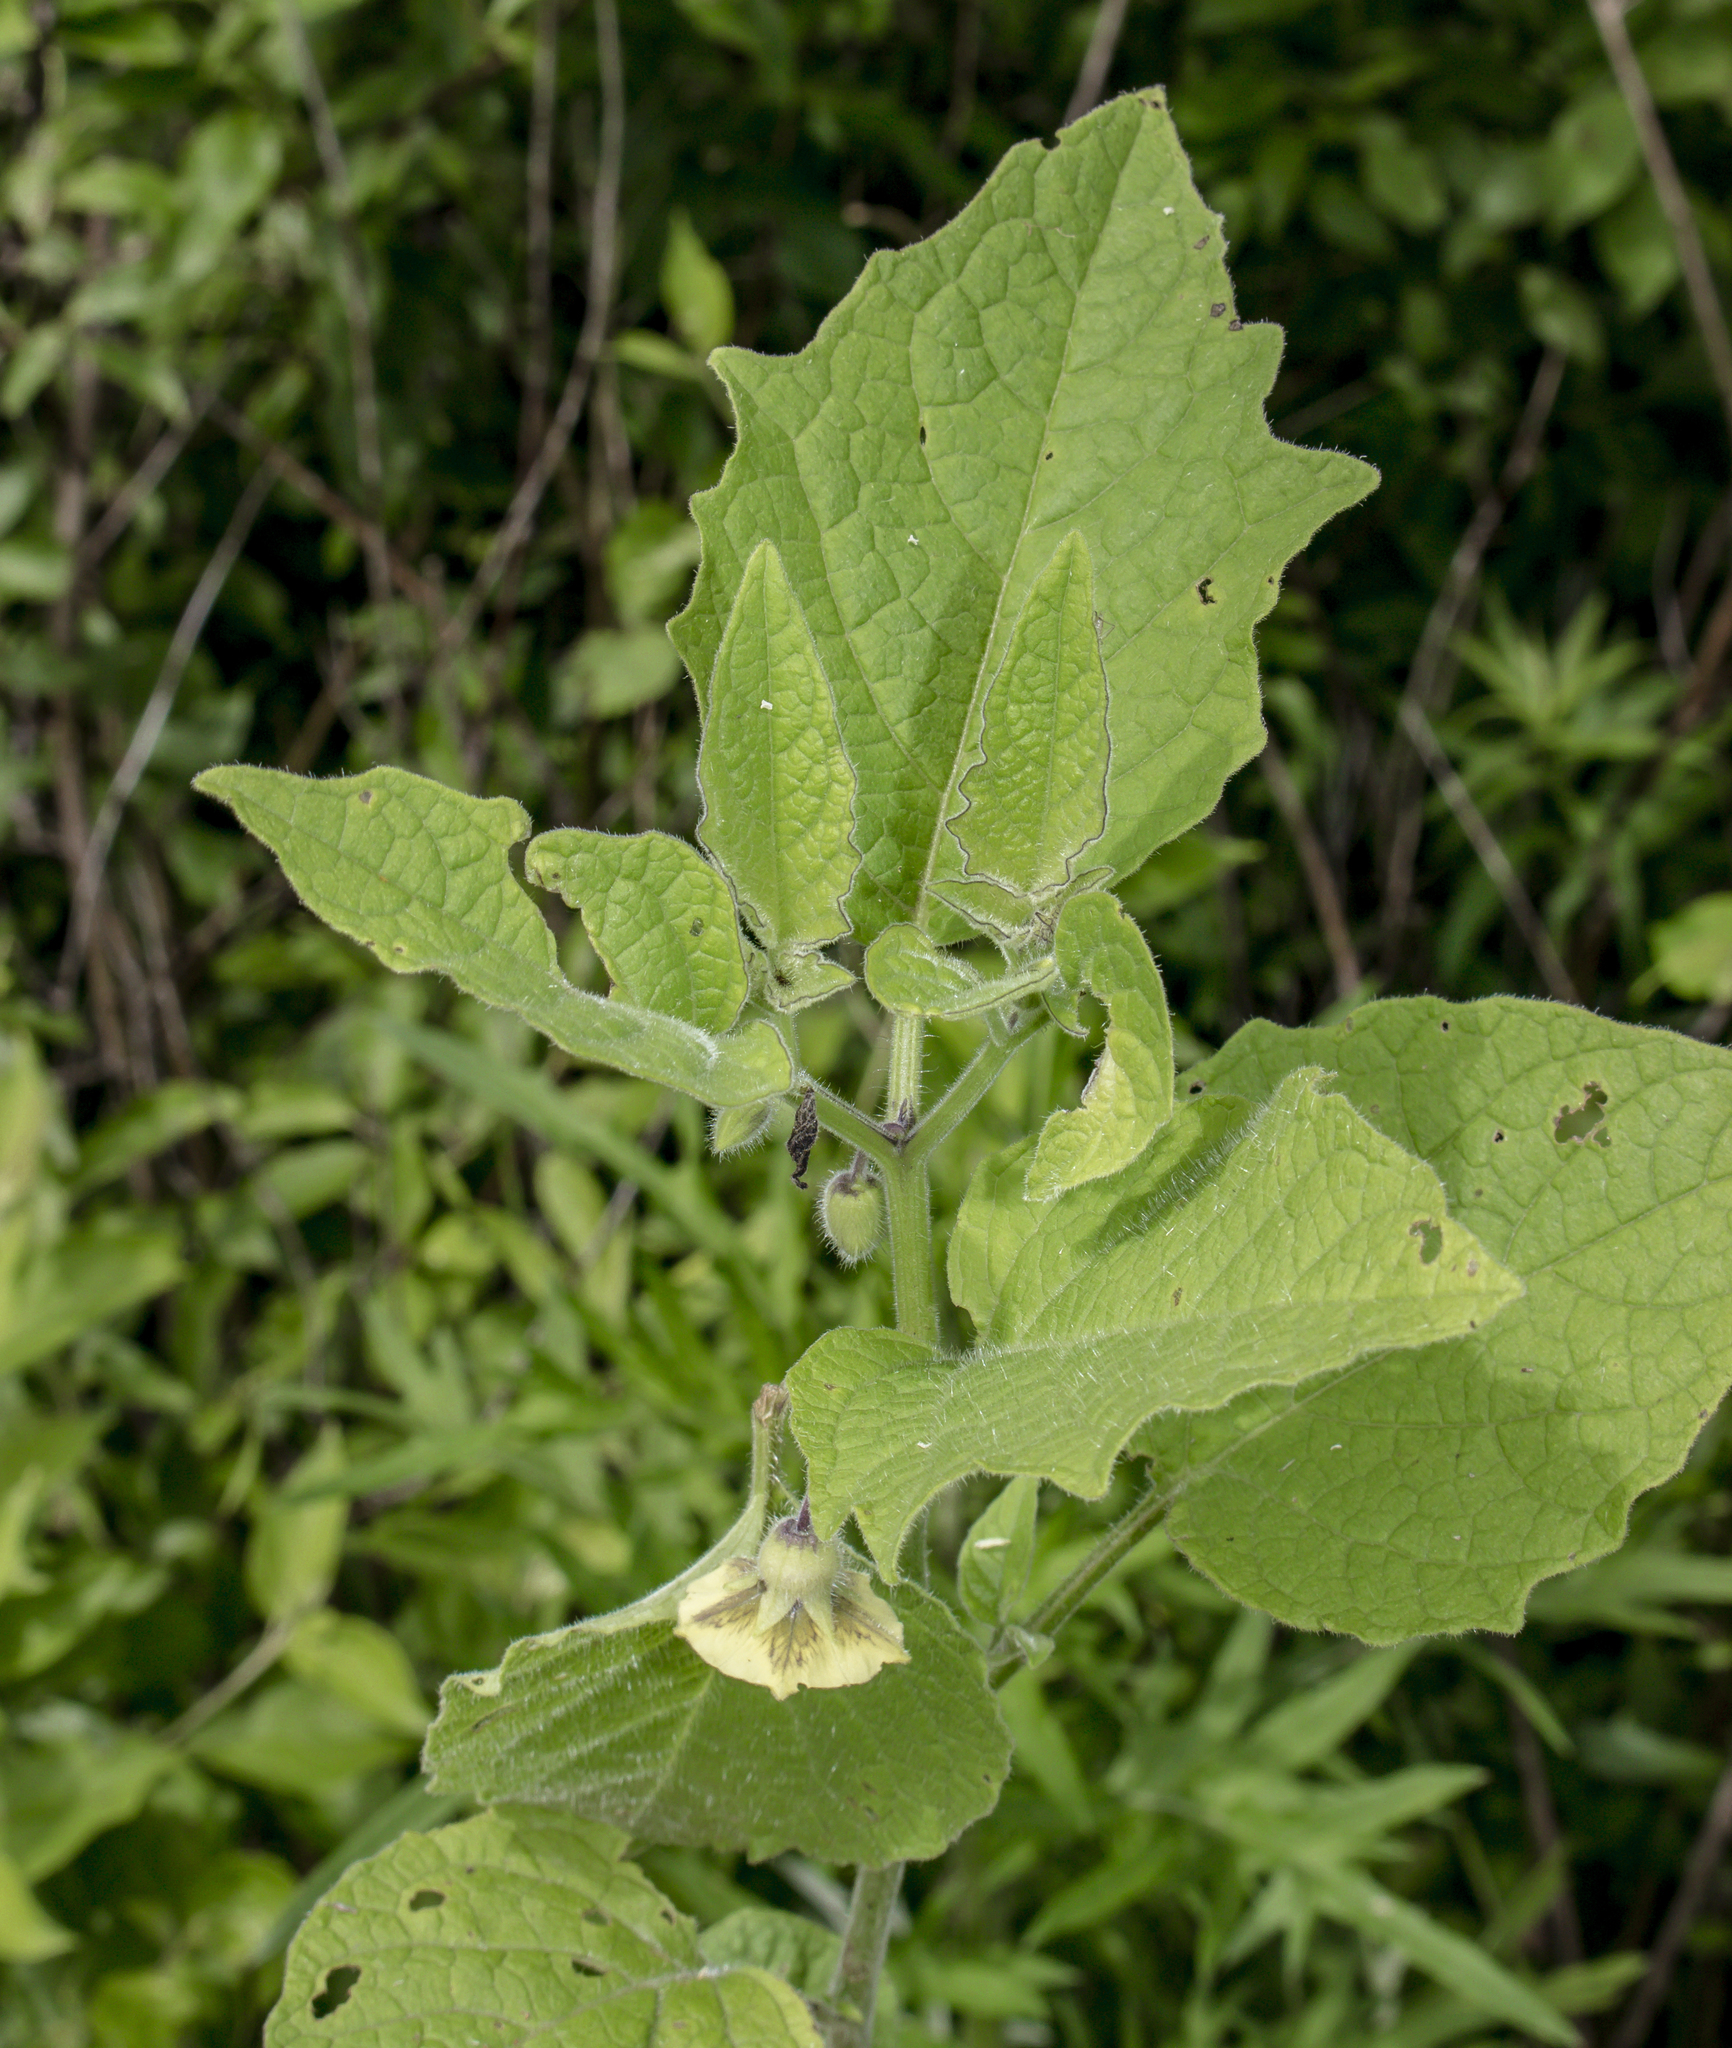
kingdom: Plantae
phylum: Tracheophyta
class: Magnoliopsida
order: Solanales
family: Solanaceae
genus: Physalis
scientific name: Physalis heterophylla
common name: Clammy ground-cherry
